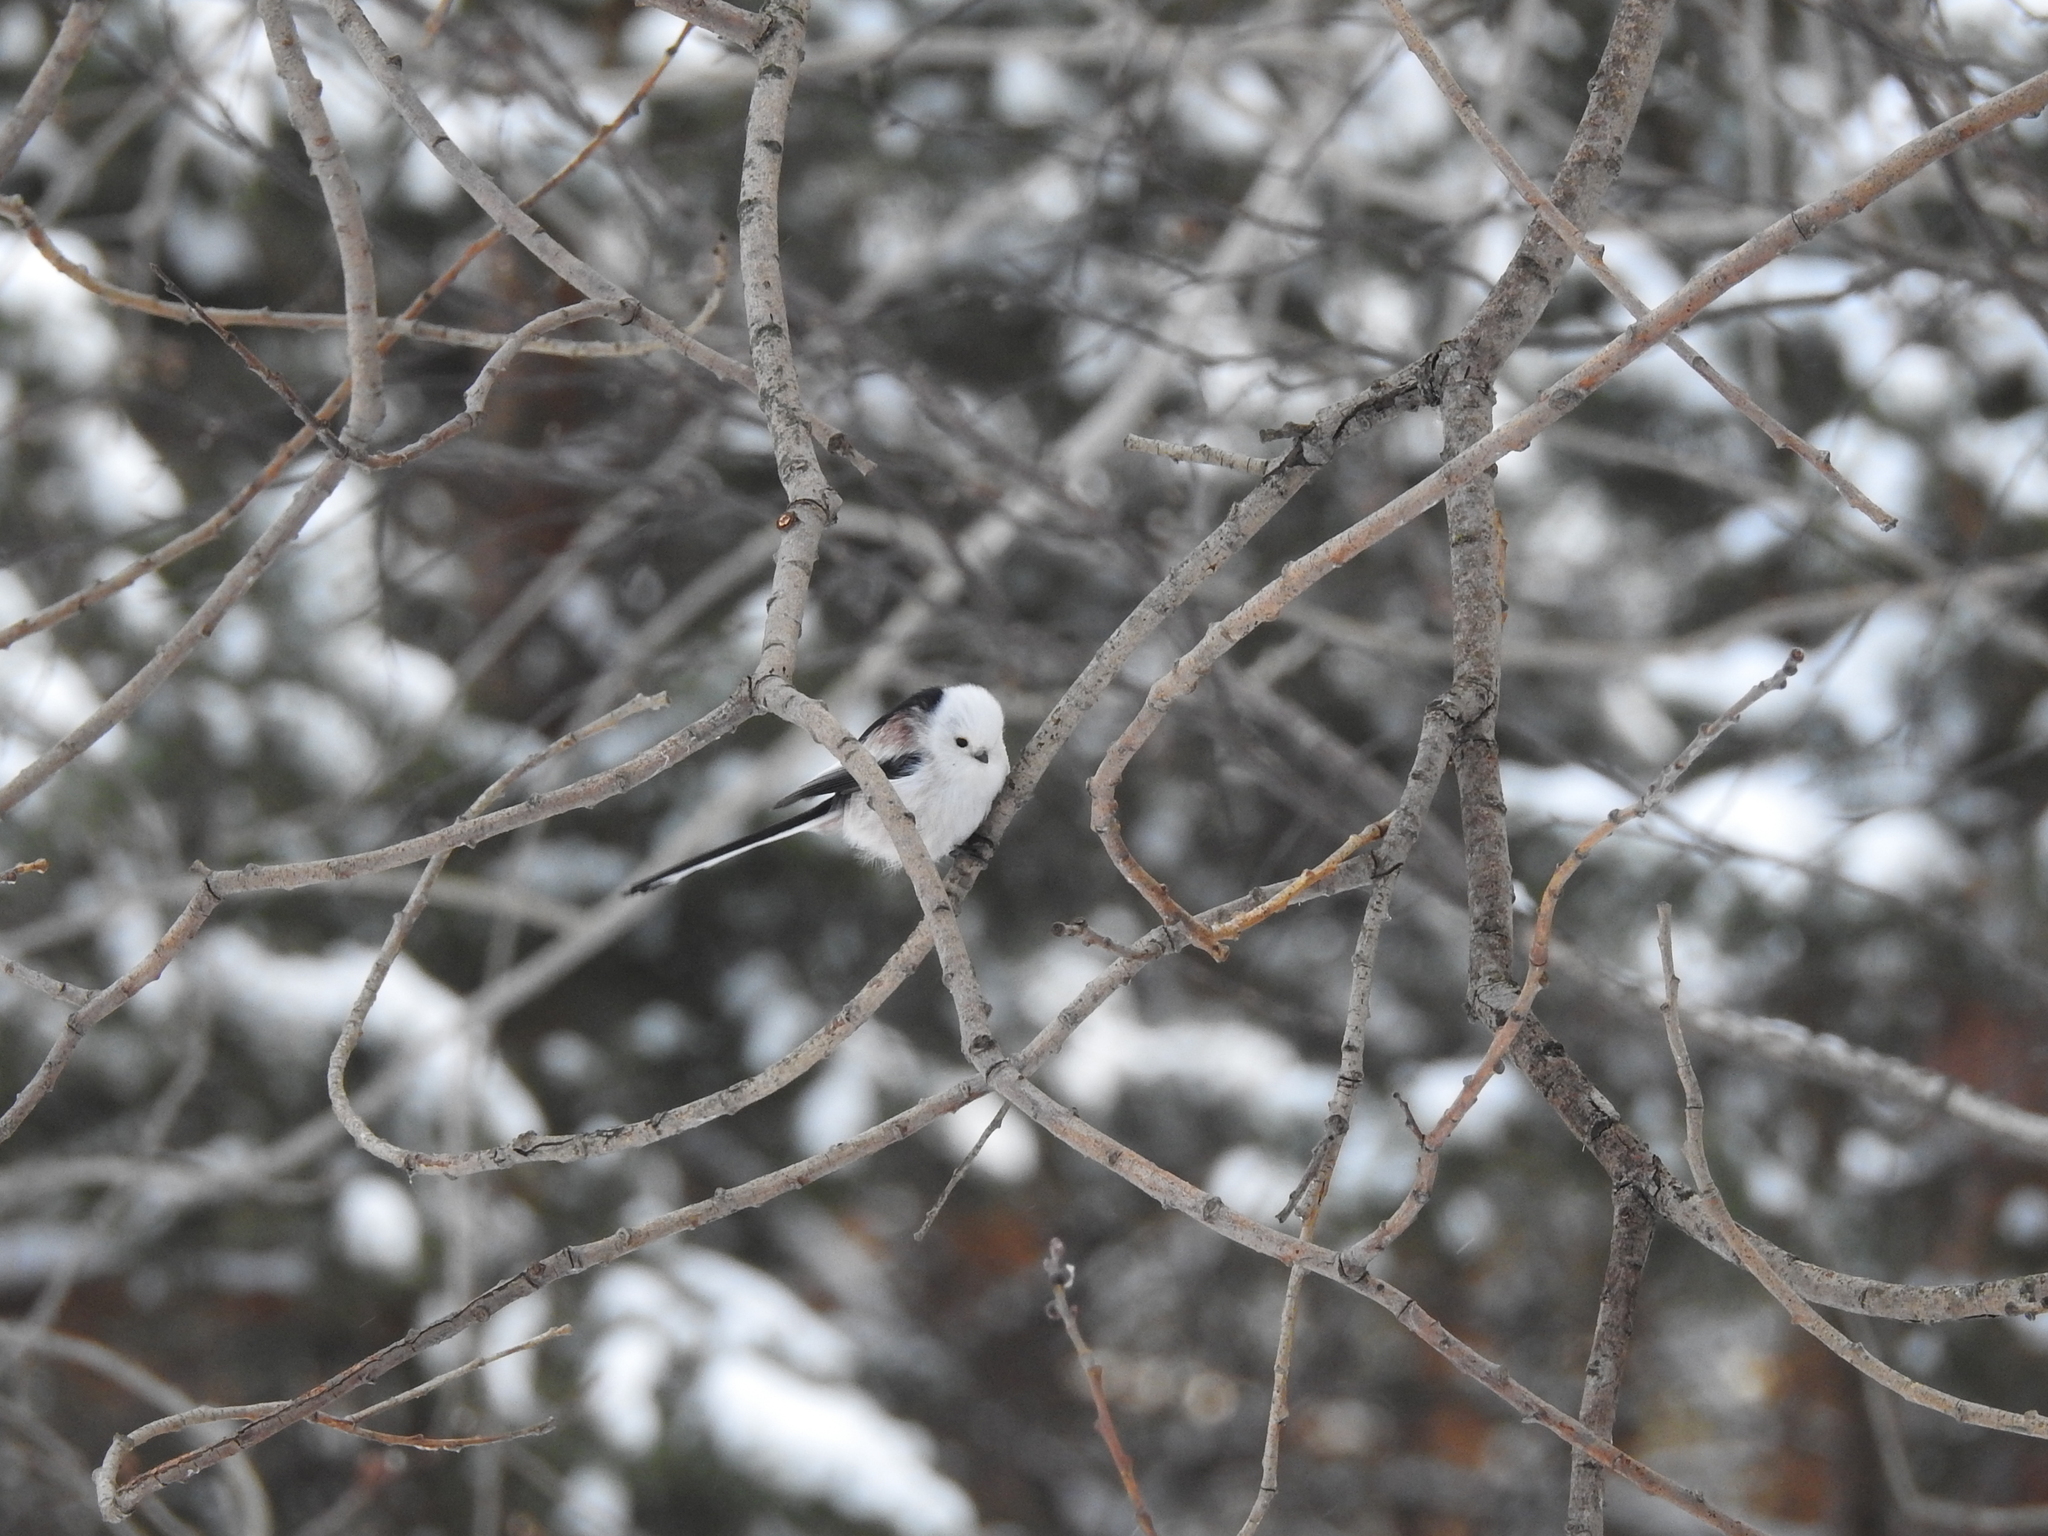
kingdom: Animalia
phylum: Chordata
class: Aves
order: Passeriformes
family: Aegithalidae
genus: Aegithalos
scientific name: Aegithalos caudatus
